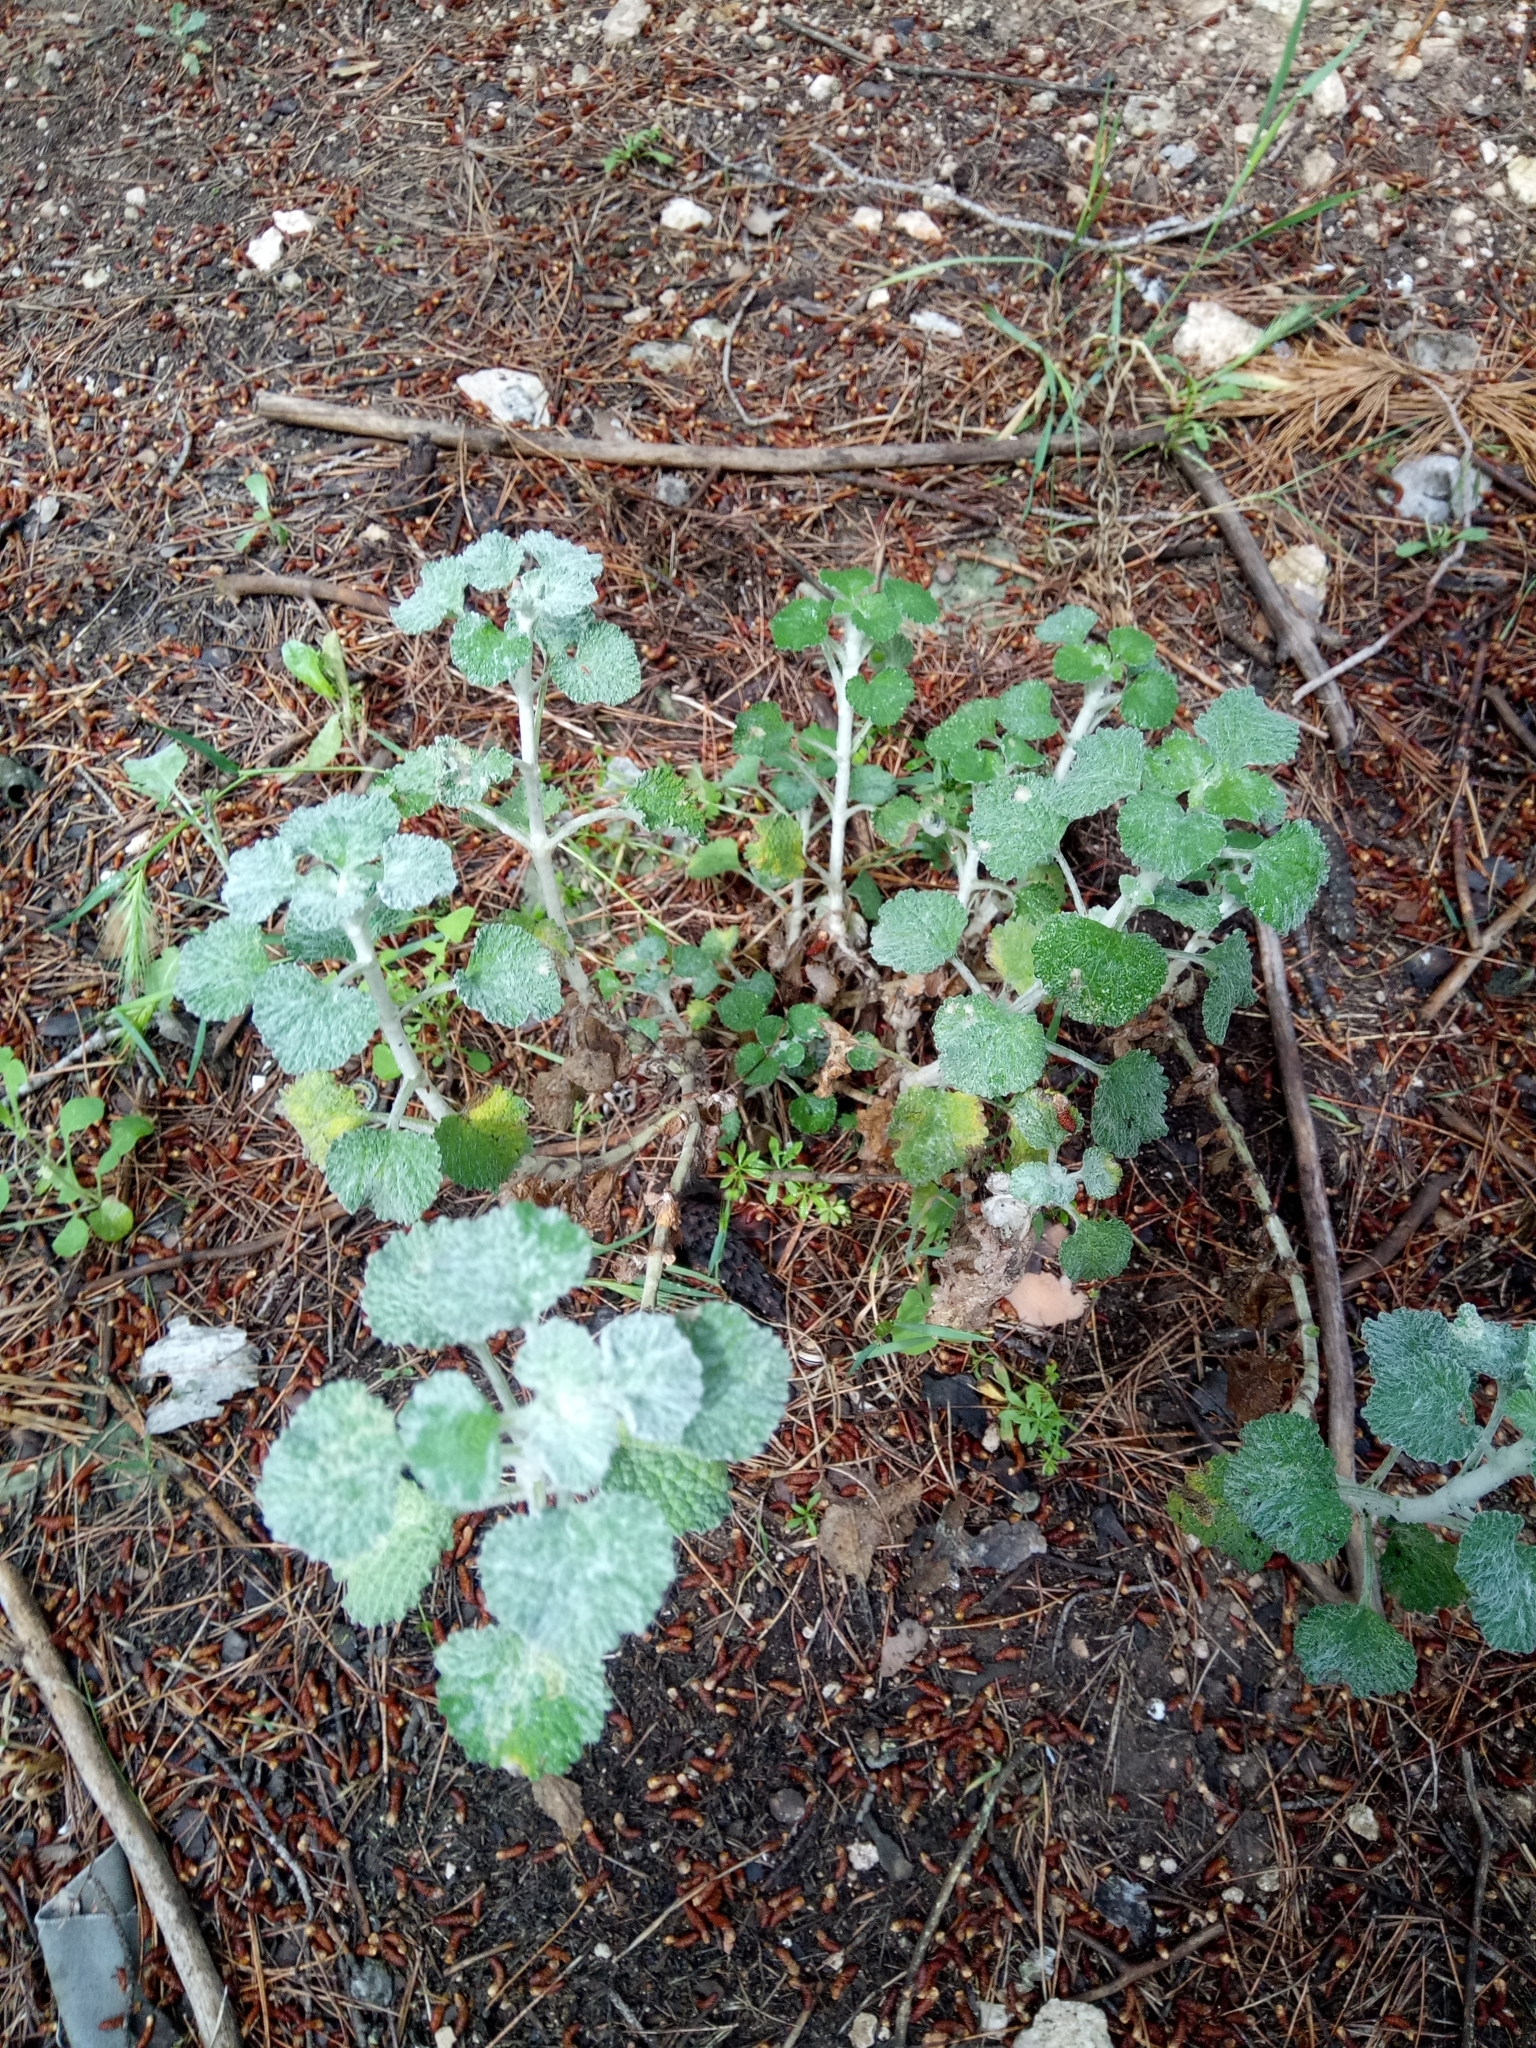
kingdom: Plantae
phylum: Tracheophyta
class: Magnoliopsida
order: Lamiales
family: Lamiaceae
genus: Marrubium
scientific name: Marrubium vulgare
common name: Horehound
